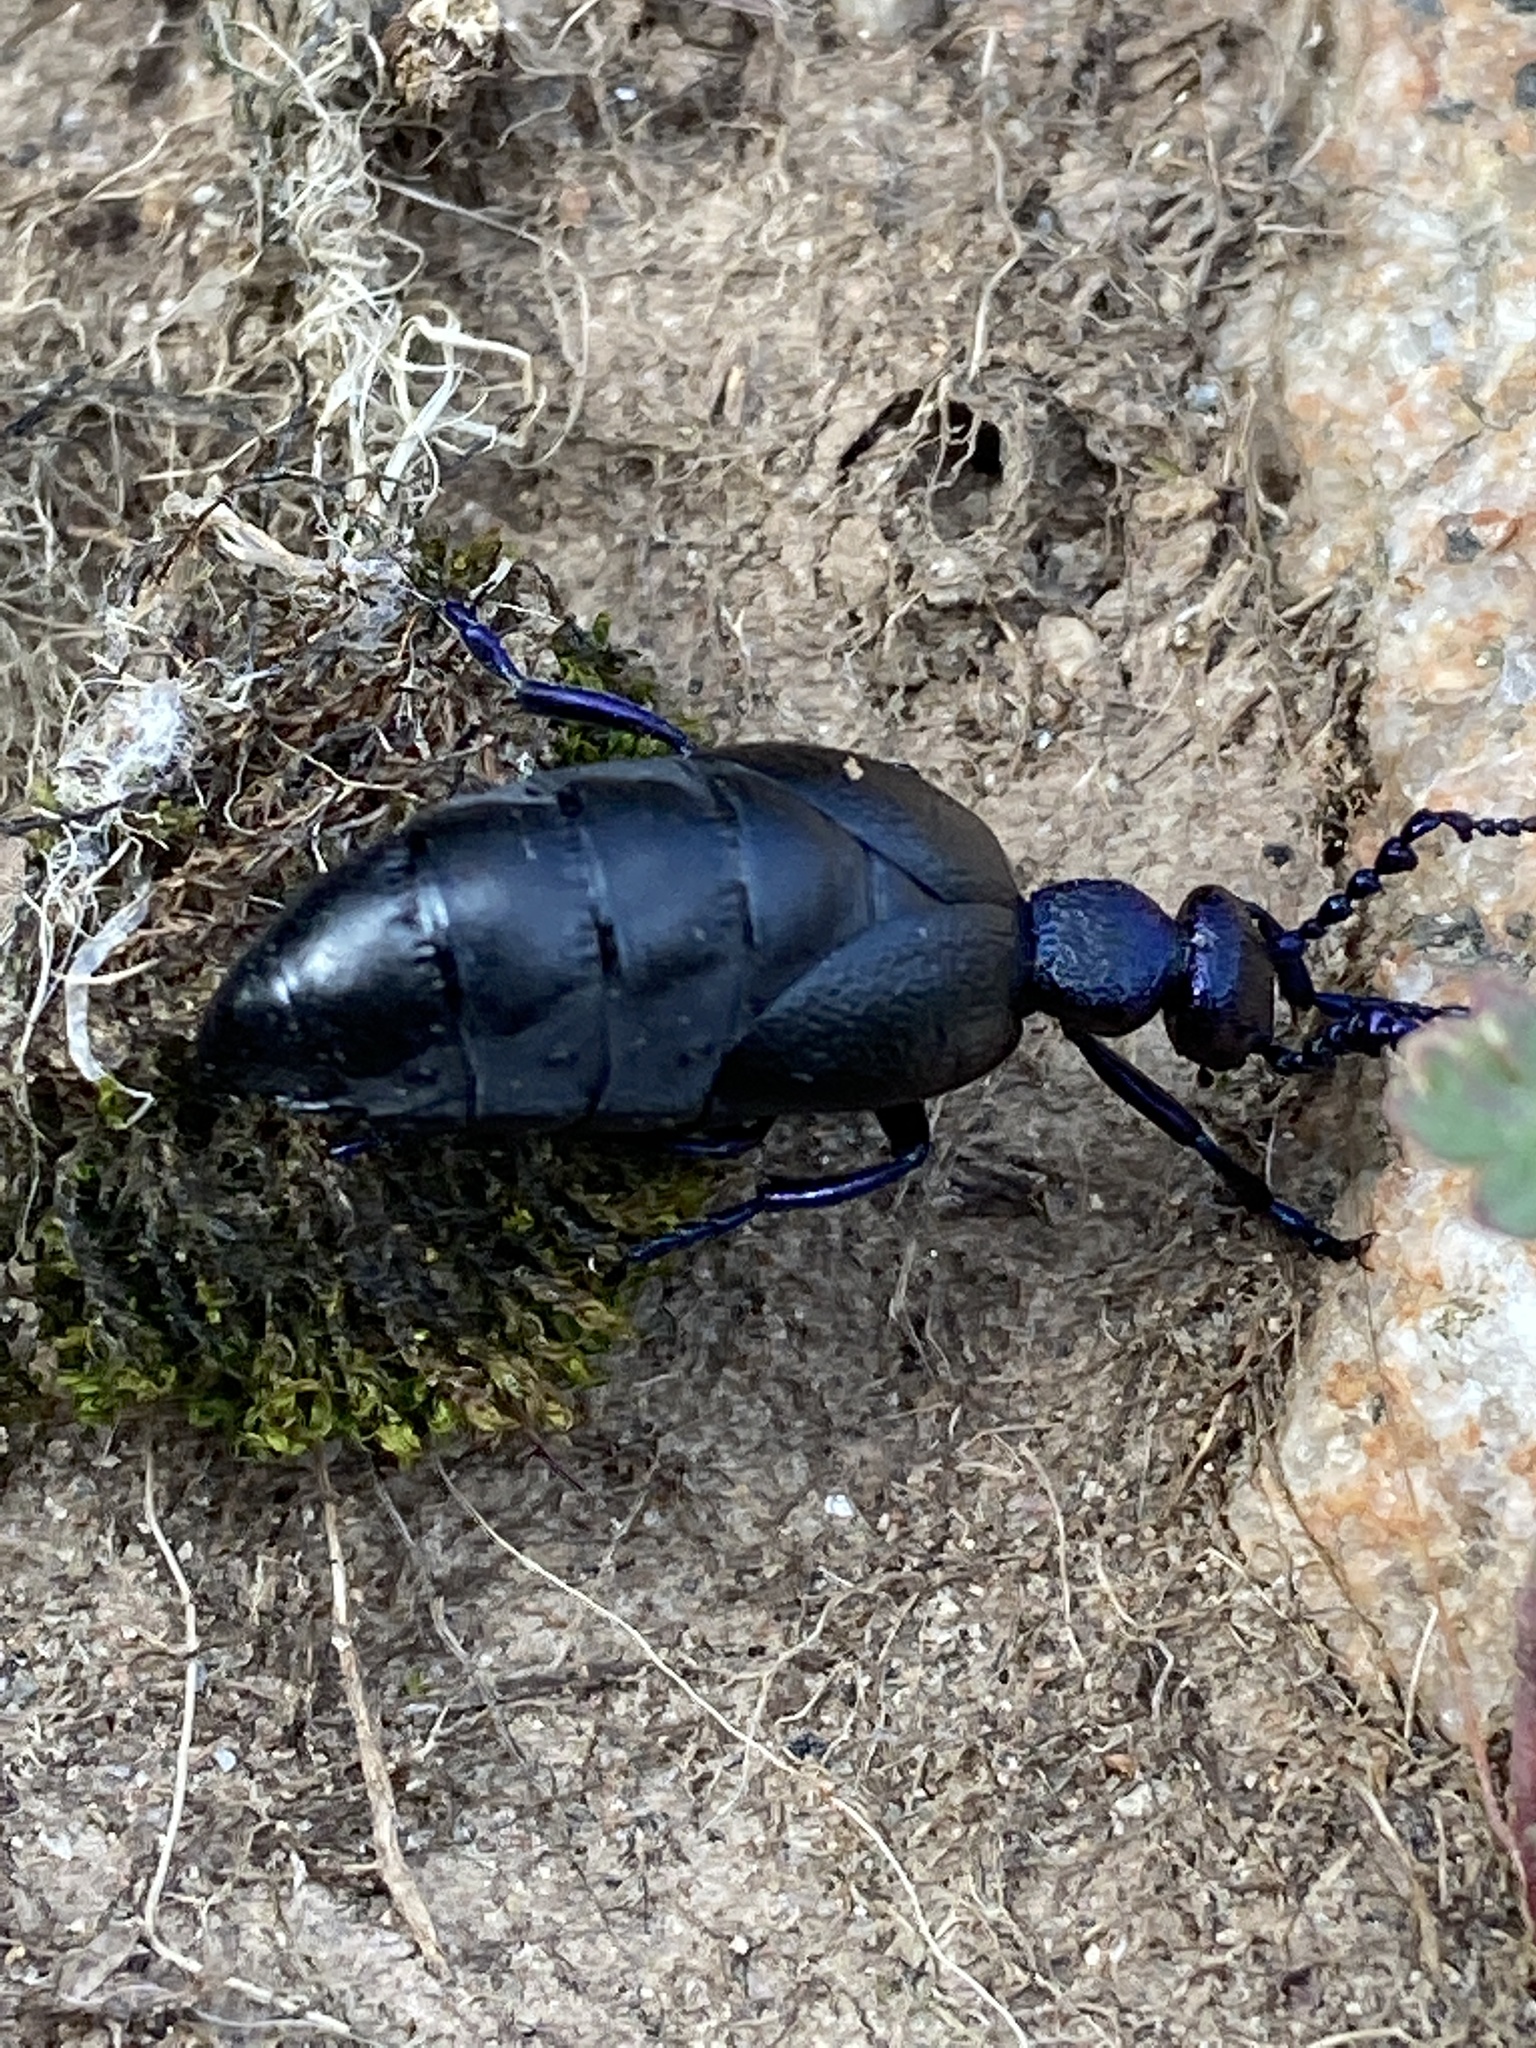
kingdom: Animalia
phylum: Arthropoda
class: Insecta
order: Coleoptera
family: Meloidae
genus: Meloe
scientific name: Meloe proscarabaeus
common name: Black oil-beetle
